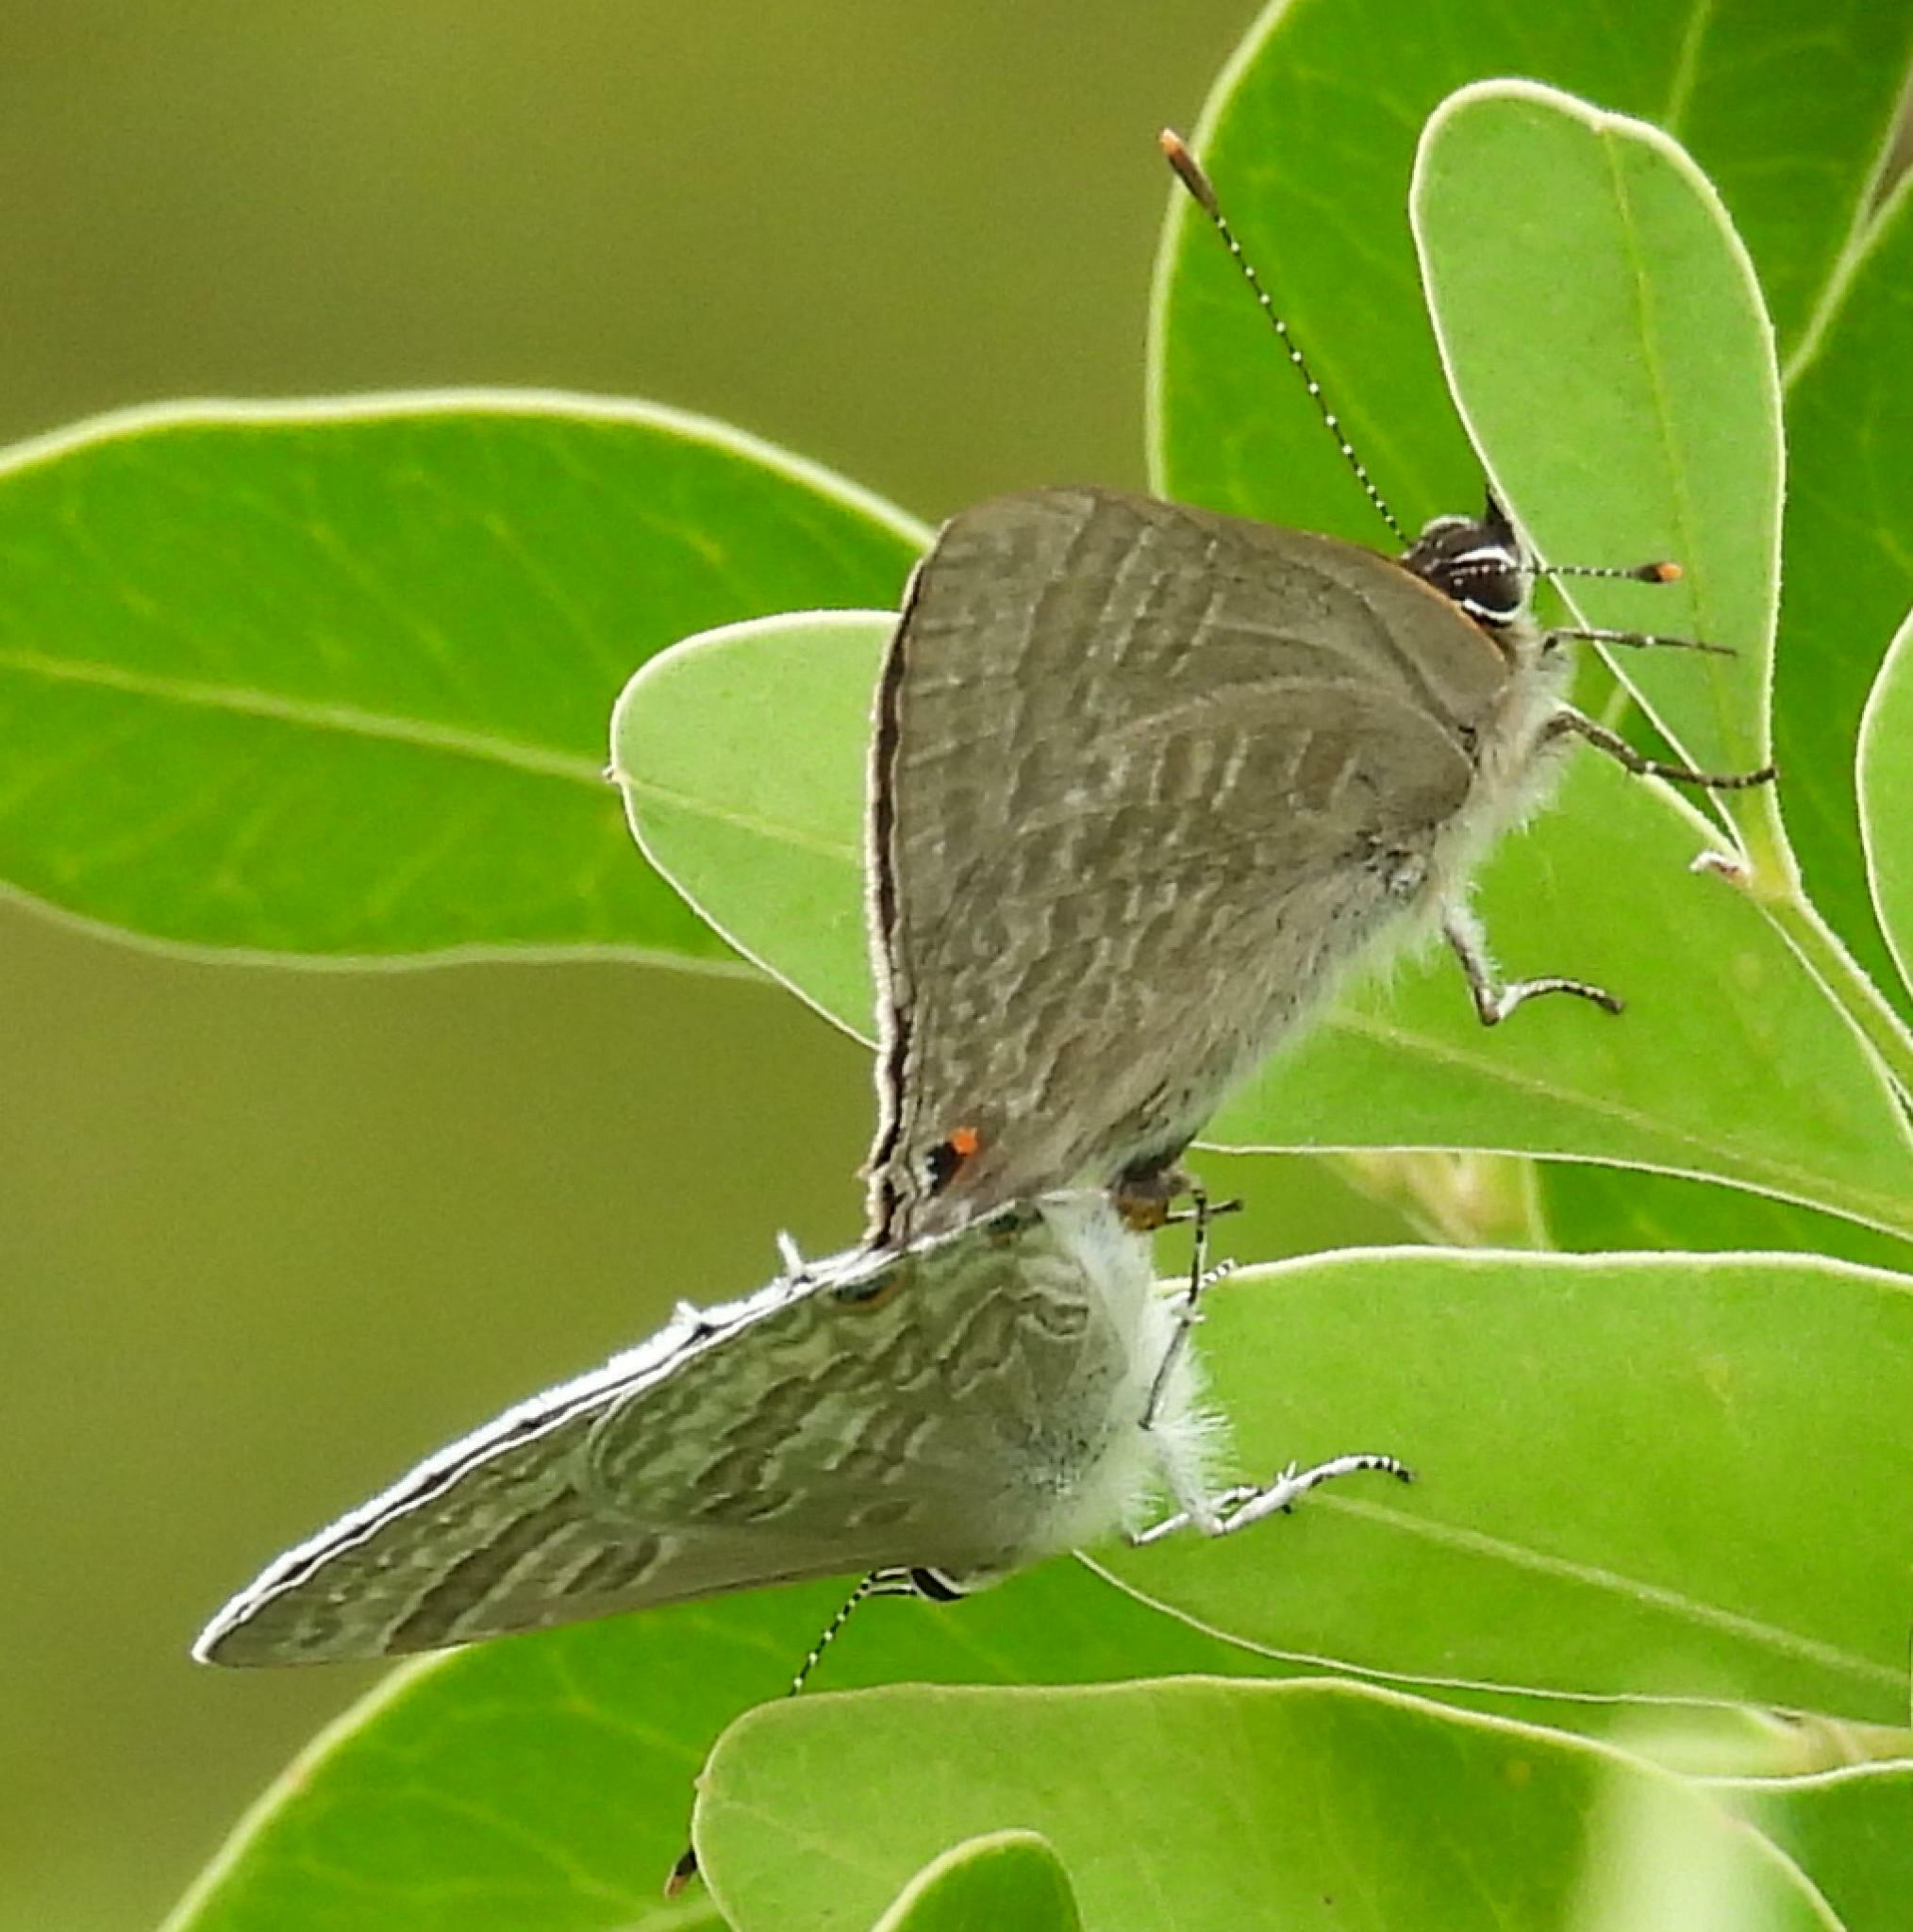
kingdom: Animalia
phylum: Arthropoda
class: Insecta
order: Lepidoptera
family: Lycaenidae
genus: Anthene
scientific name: Anthene definita
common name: Common ciliate blue
